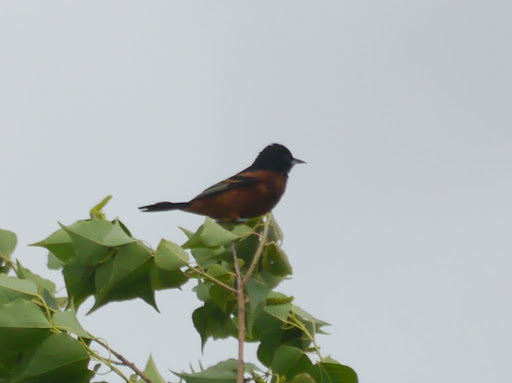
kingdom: Animalia
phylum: Chordata
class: Aves
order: Passeriformes
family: Icteridae
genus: Icterus
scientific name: Icterus spurius
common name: Orchard oriole
